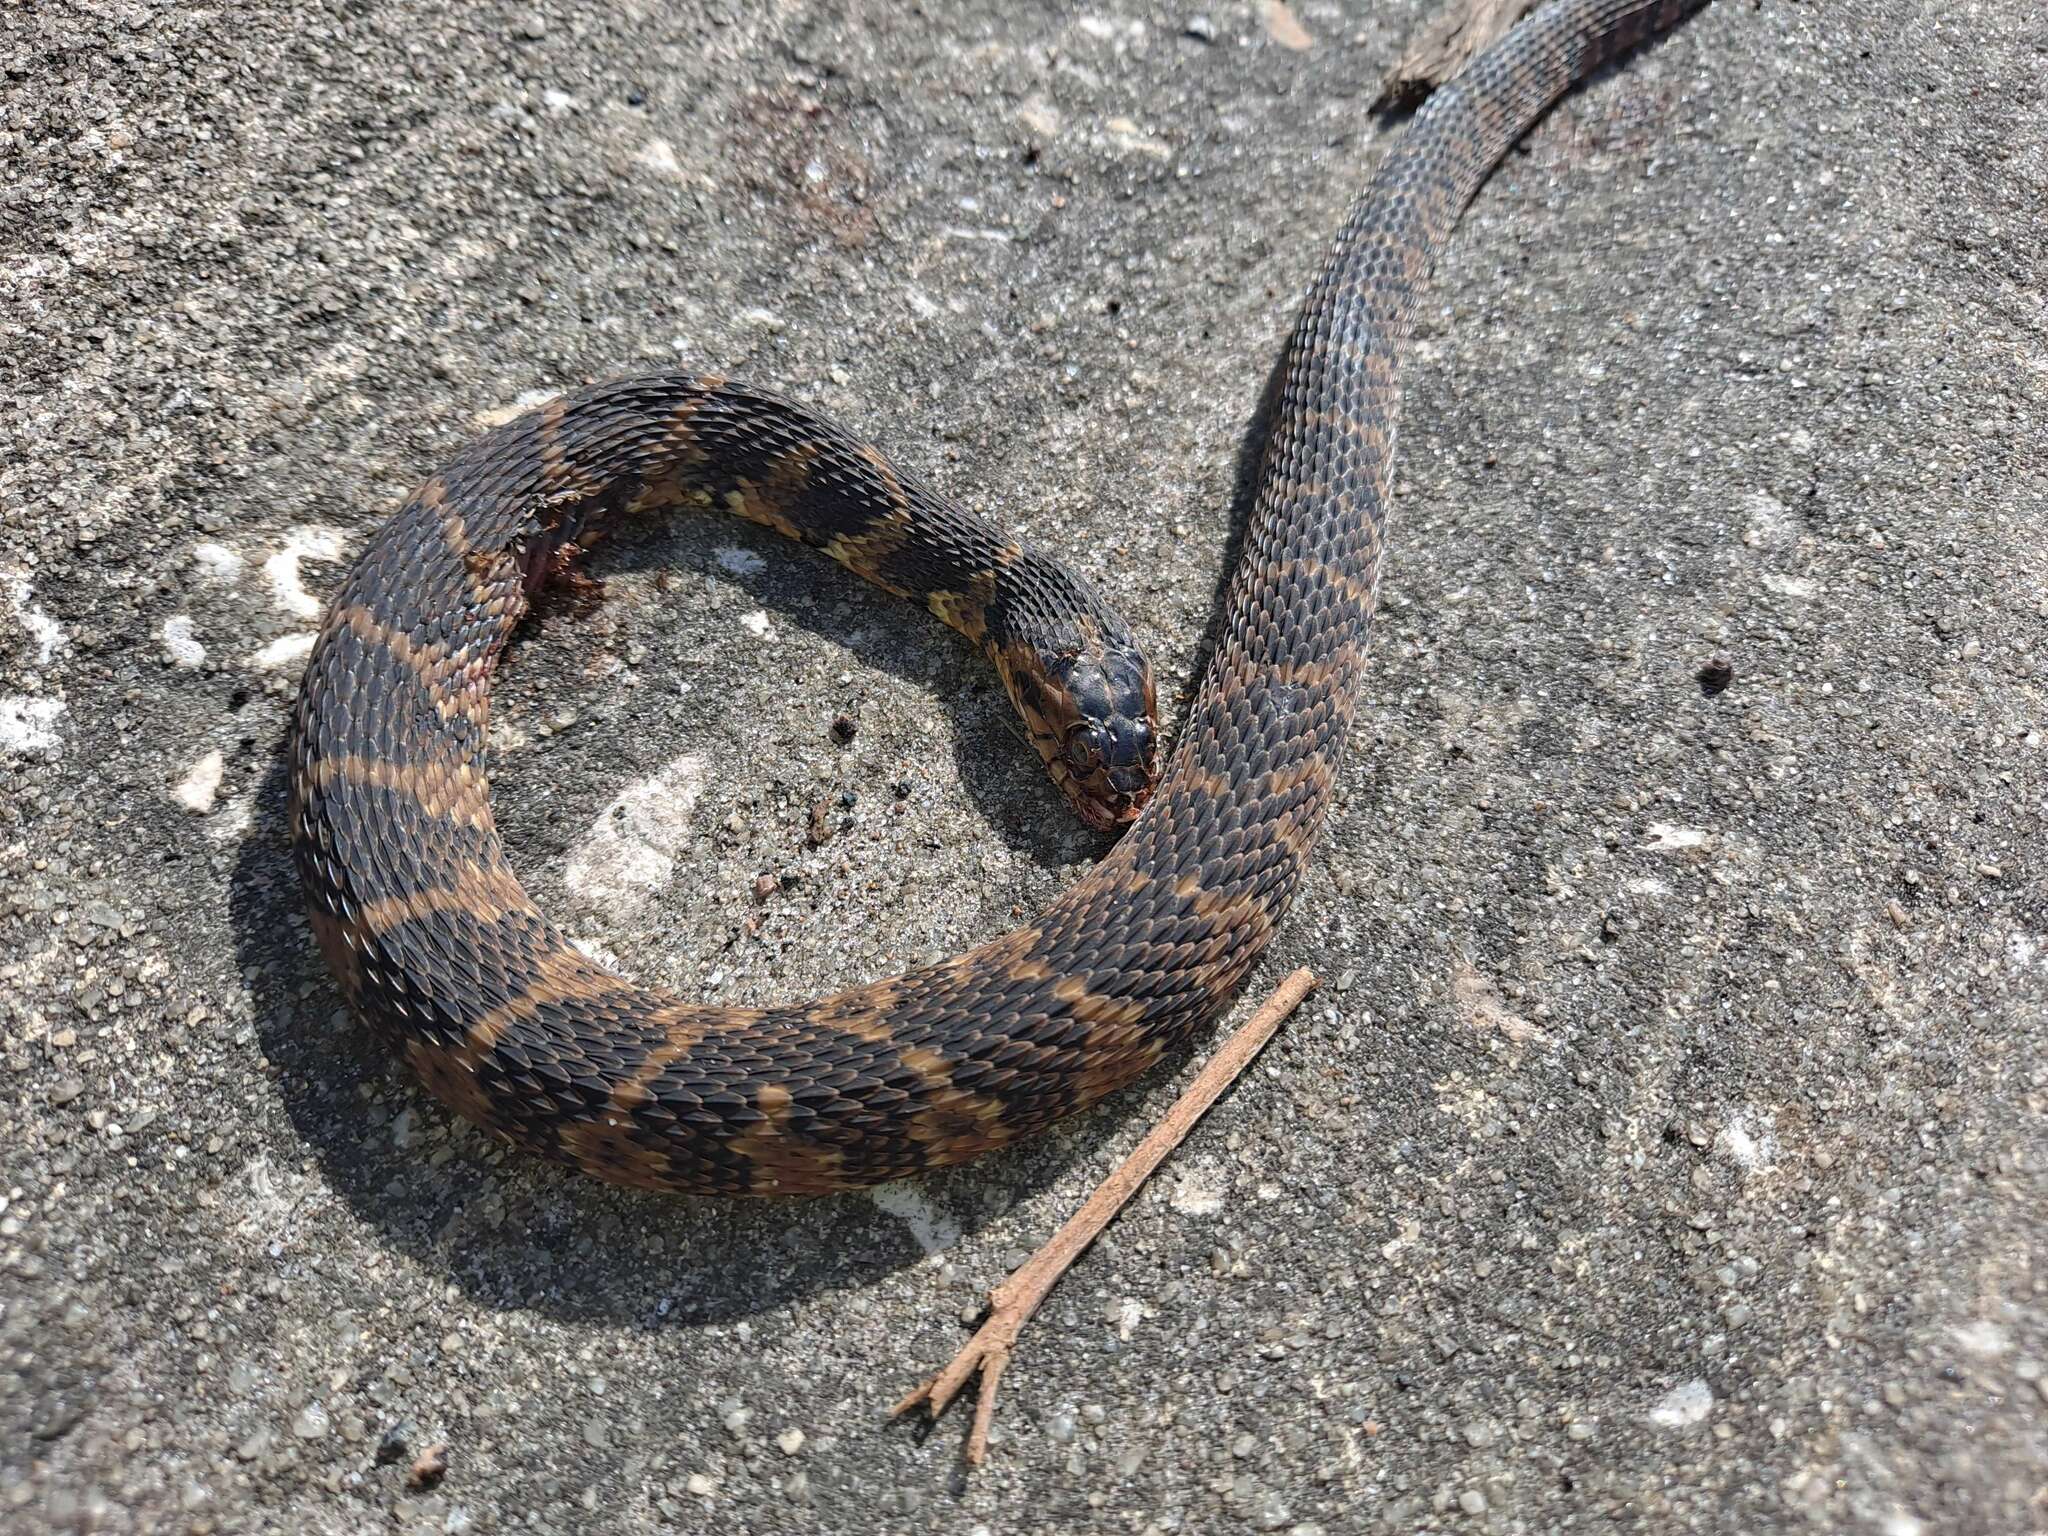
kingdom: Animalia
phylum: Chordata
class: Squamata
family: Colubridae
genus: Nerodia
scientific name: Nerodia fasciata
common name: Southern water snake
